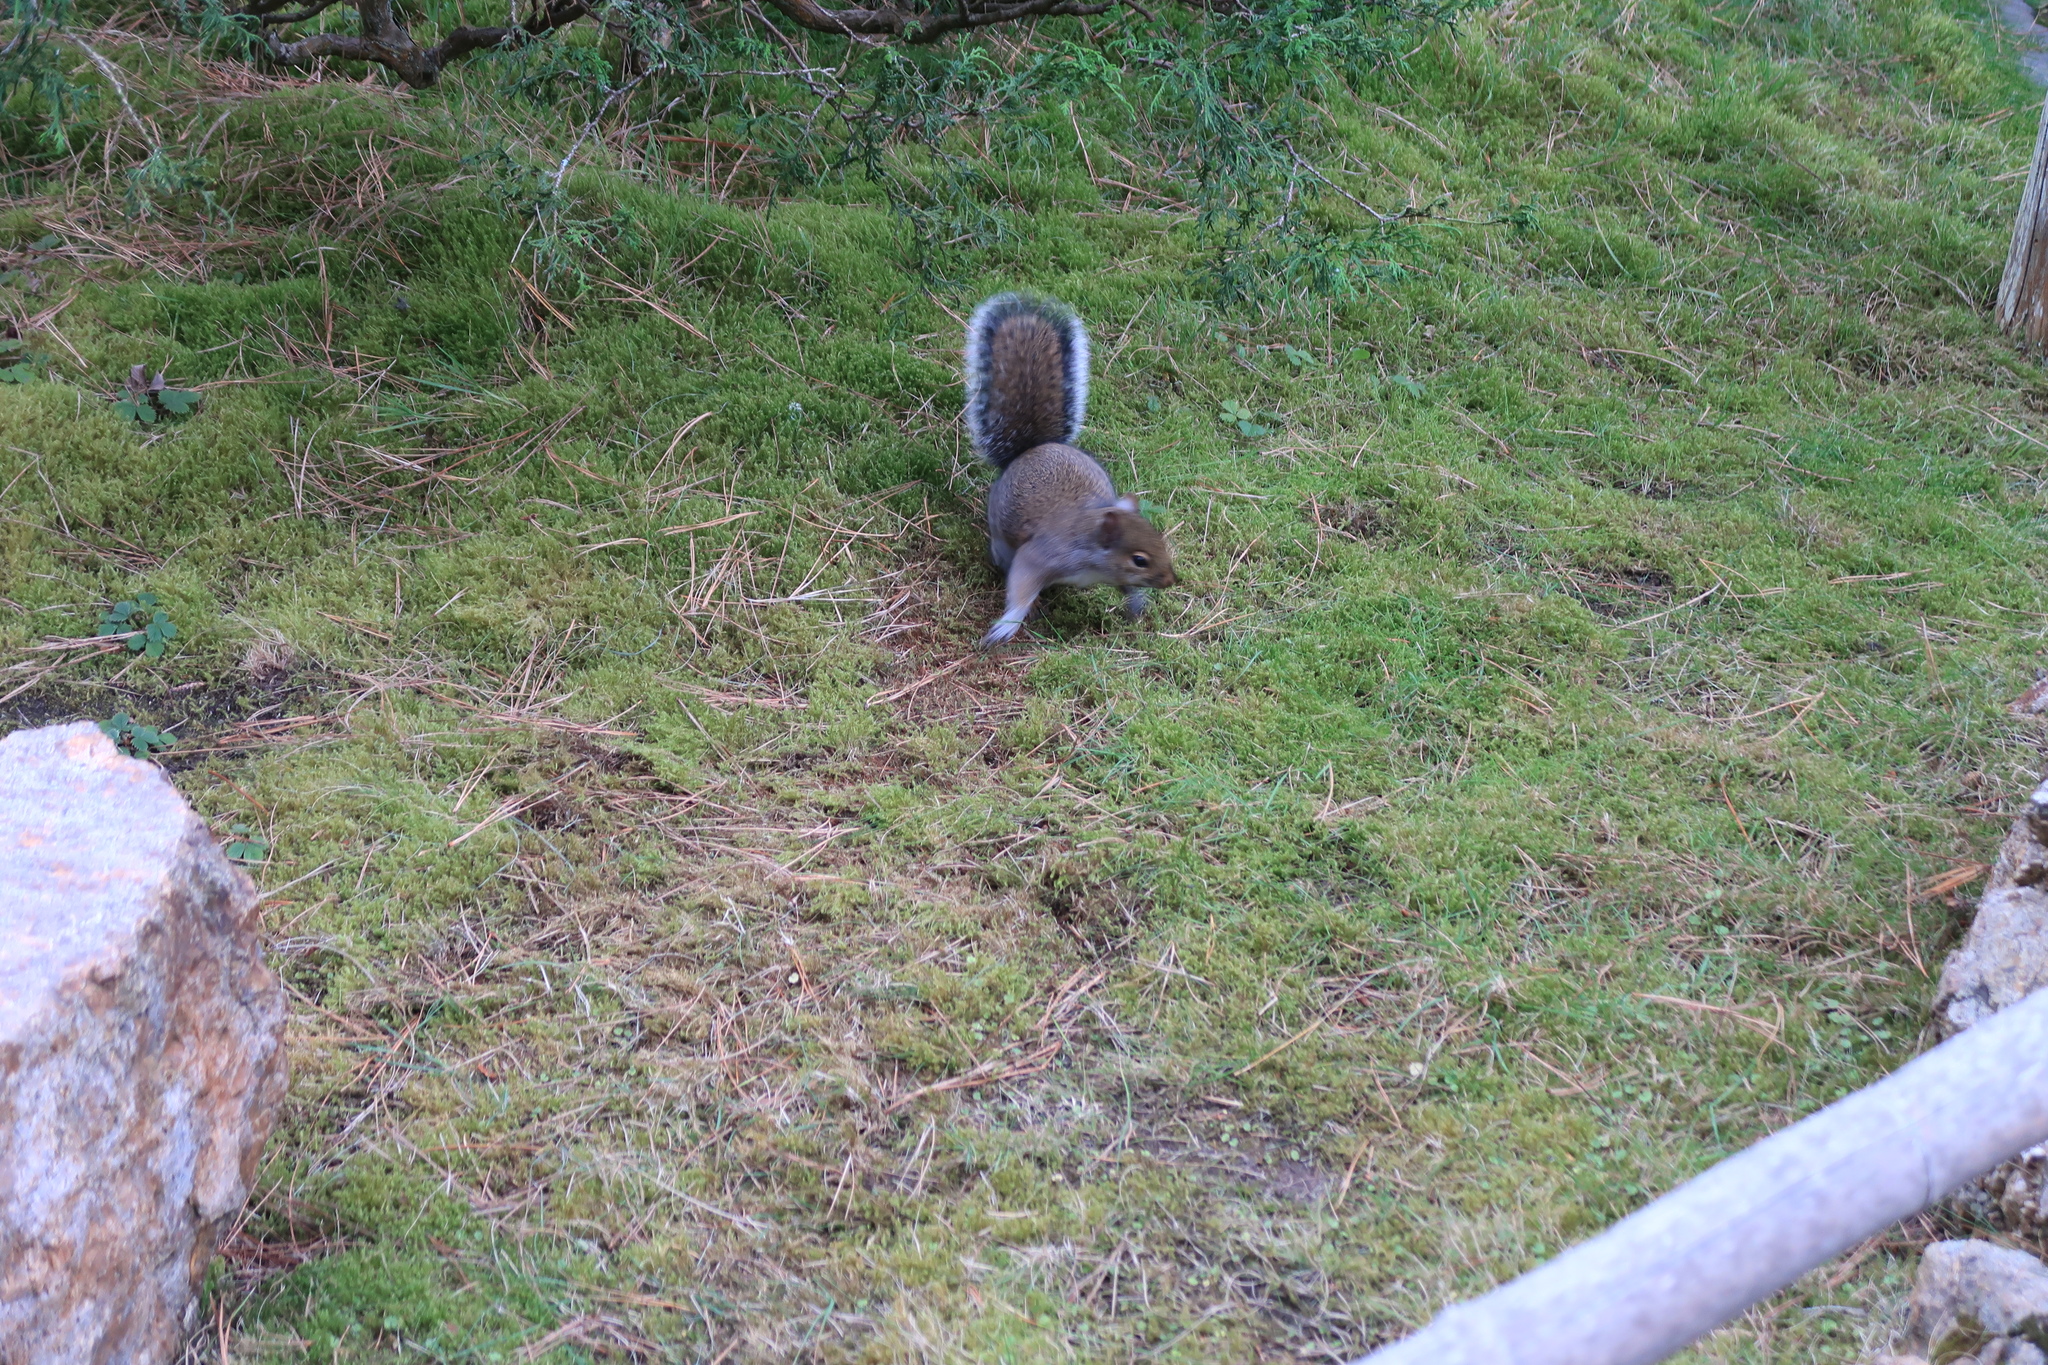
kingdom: Animalia
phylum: Chordata
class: Mammalia
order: Rodentia
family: Sciuridae
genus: Sciurus
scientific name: Sciurus carolinensis
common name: Eastern gray squirrel
